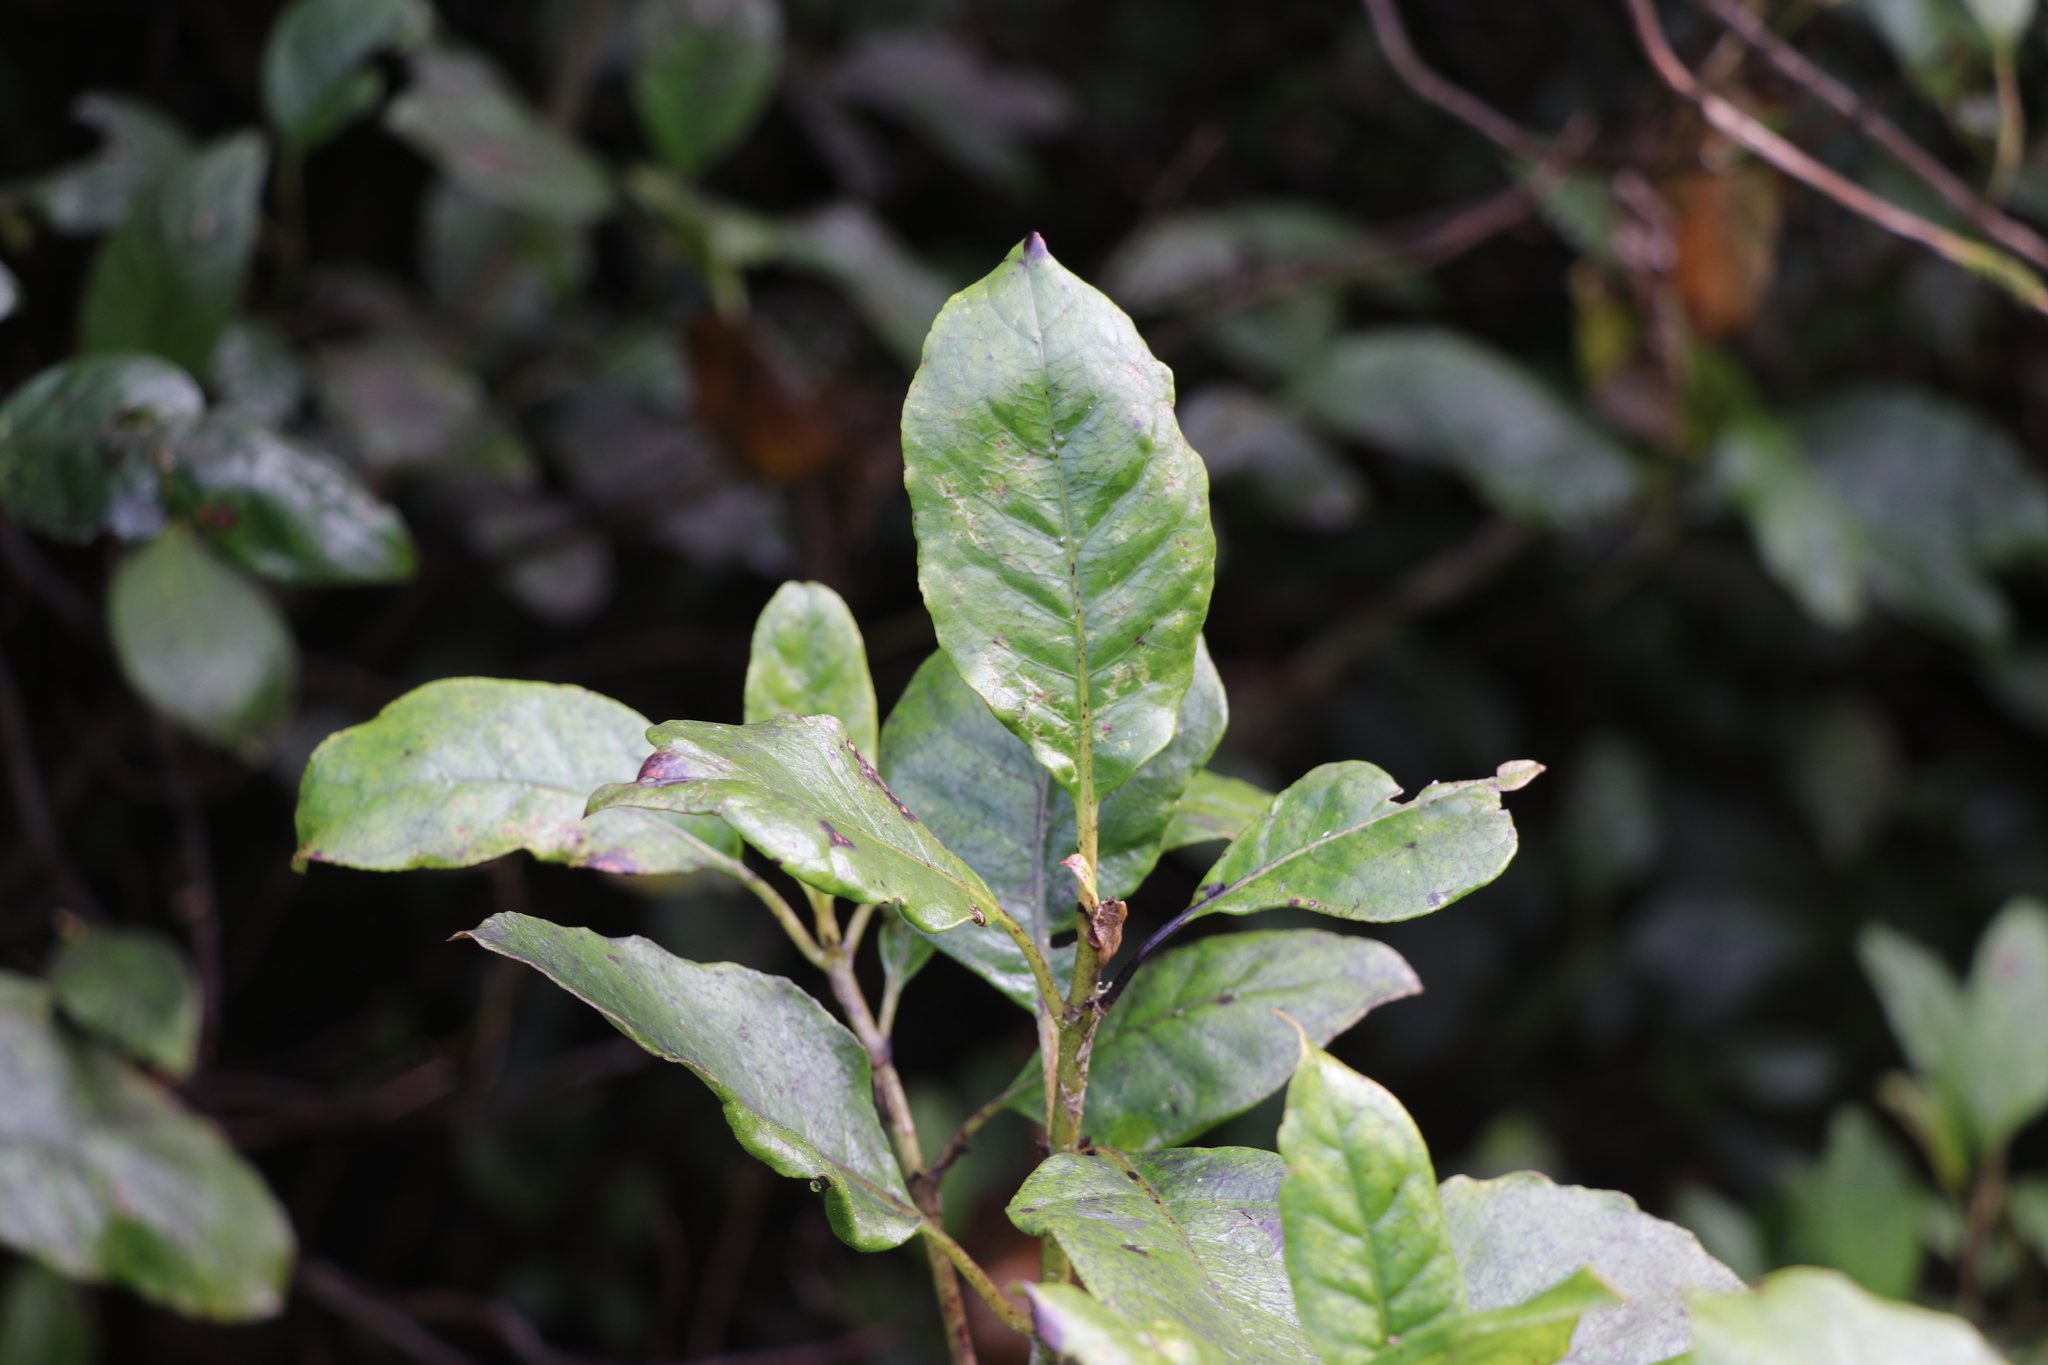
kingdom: Plantae
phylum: Tracheophyta
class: Magnoliopsida
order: Gentianales
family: Rubiaceae
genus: Coprosma
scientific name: Coprosma autumnalis
